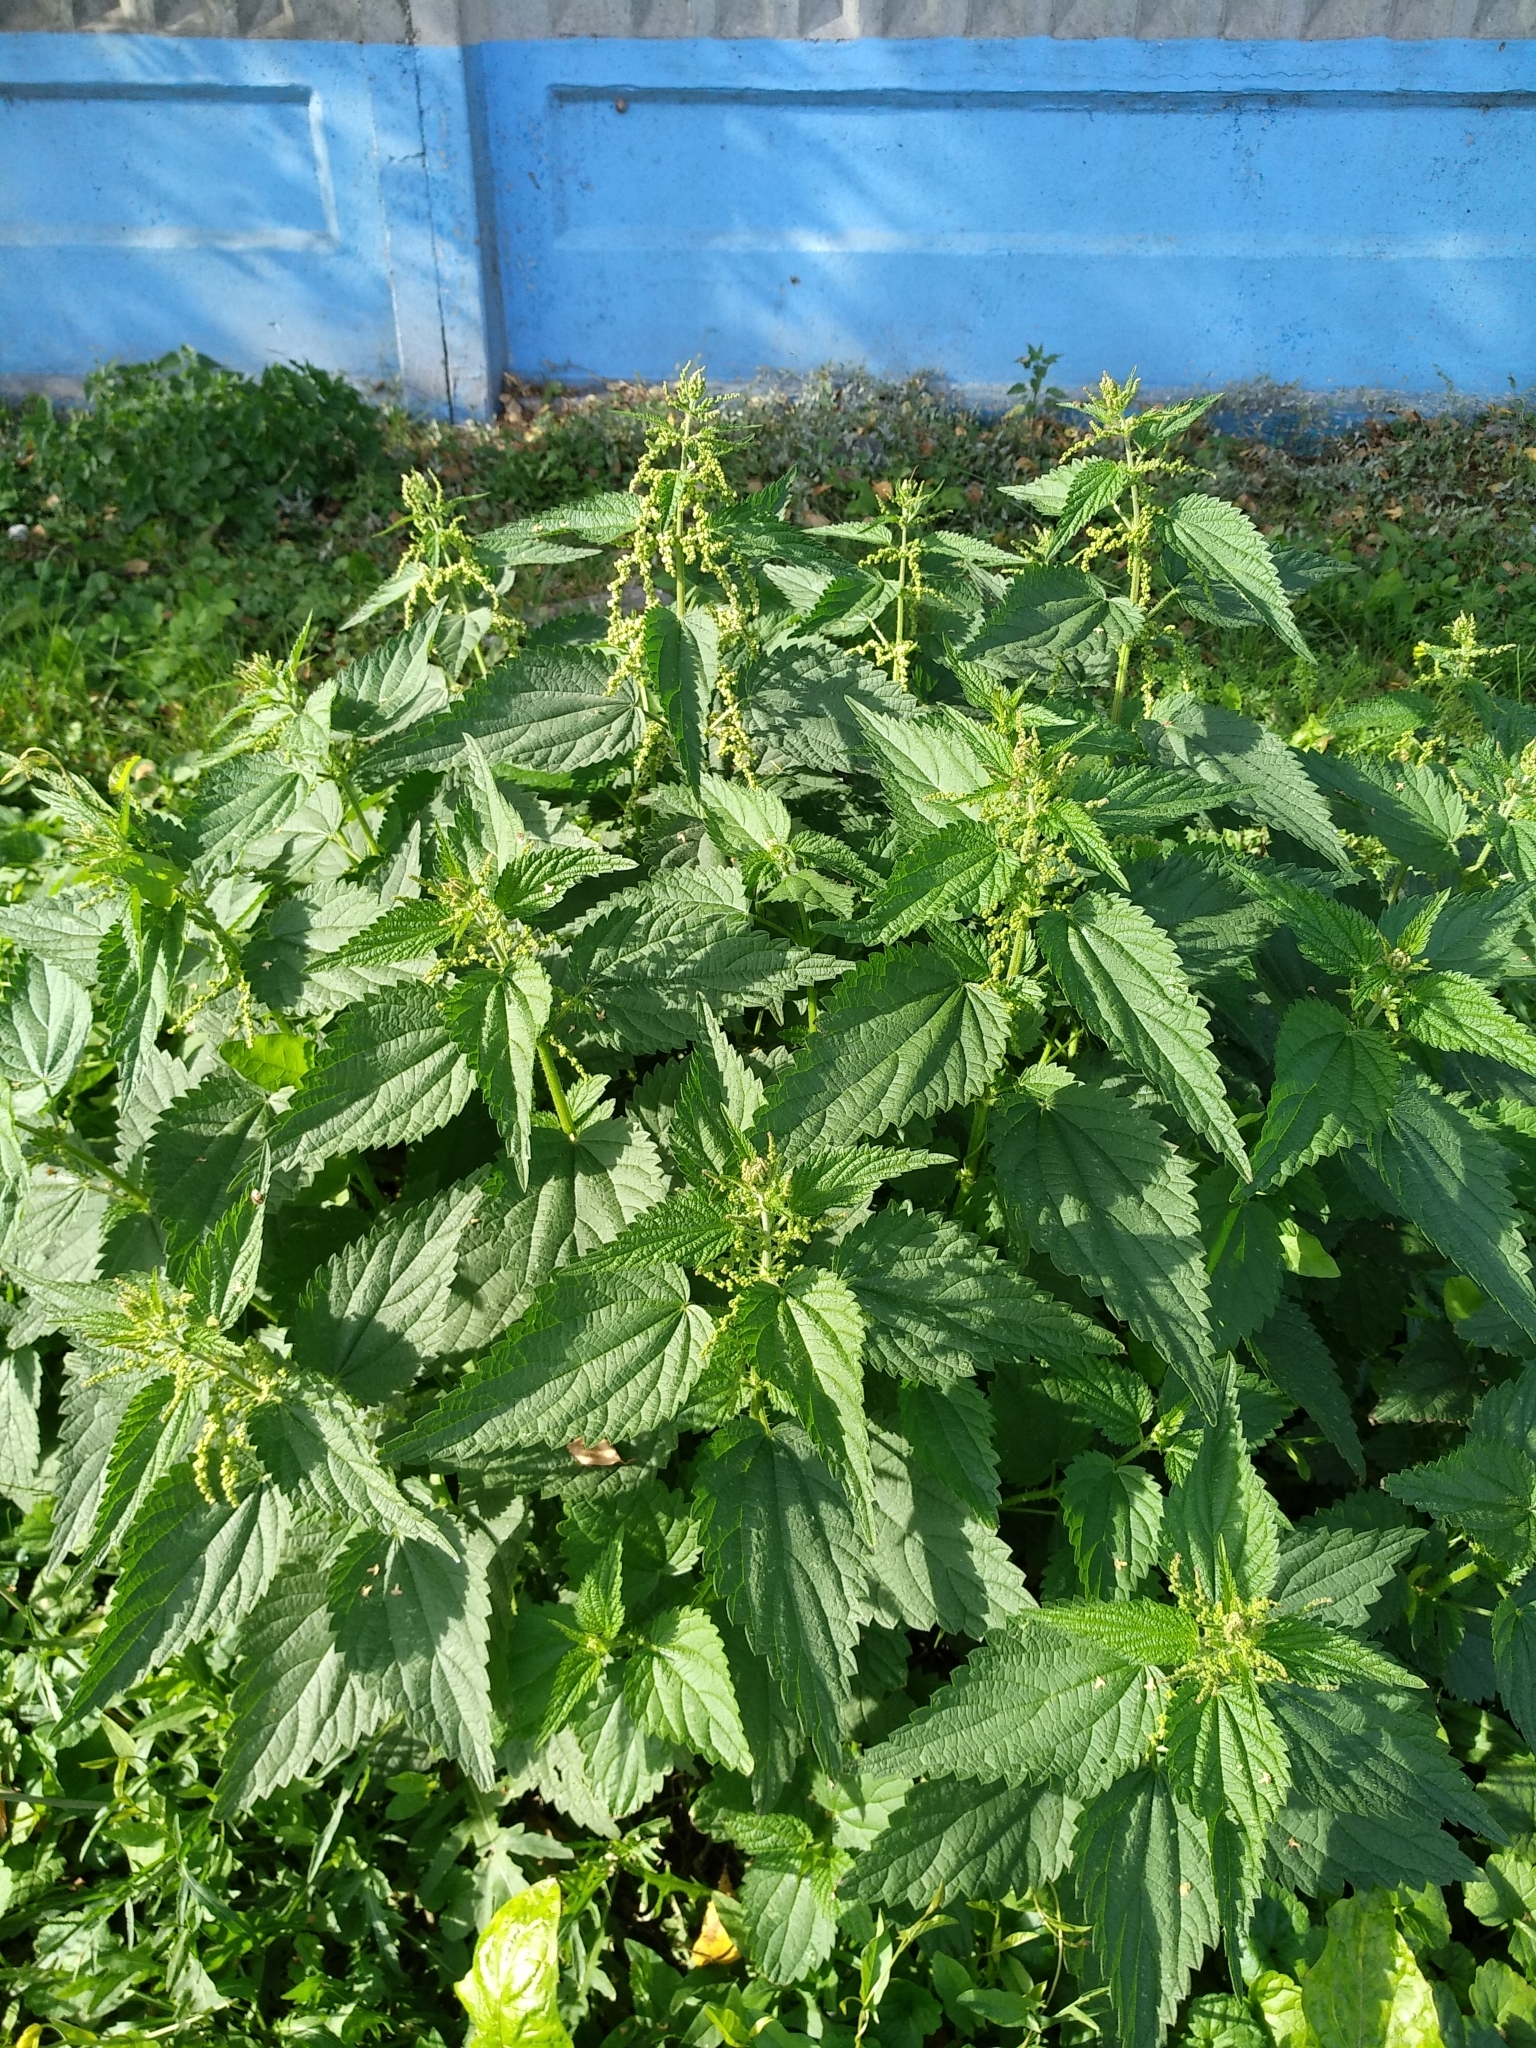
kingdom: Plantae
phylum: Tracheophyta
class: Magnoliopsida
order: Rosales
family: Urticaceae
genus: Urtica
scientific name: Urtica dioica
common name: Common nettle
